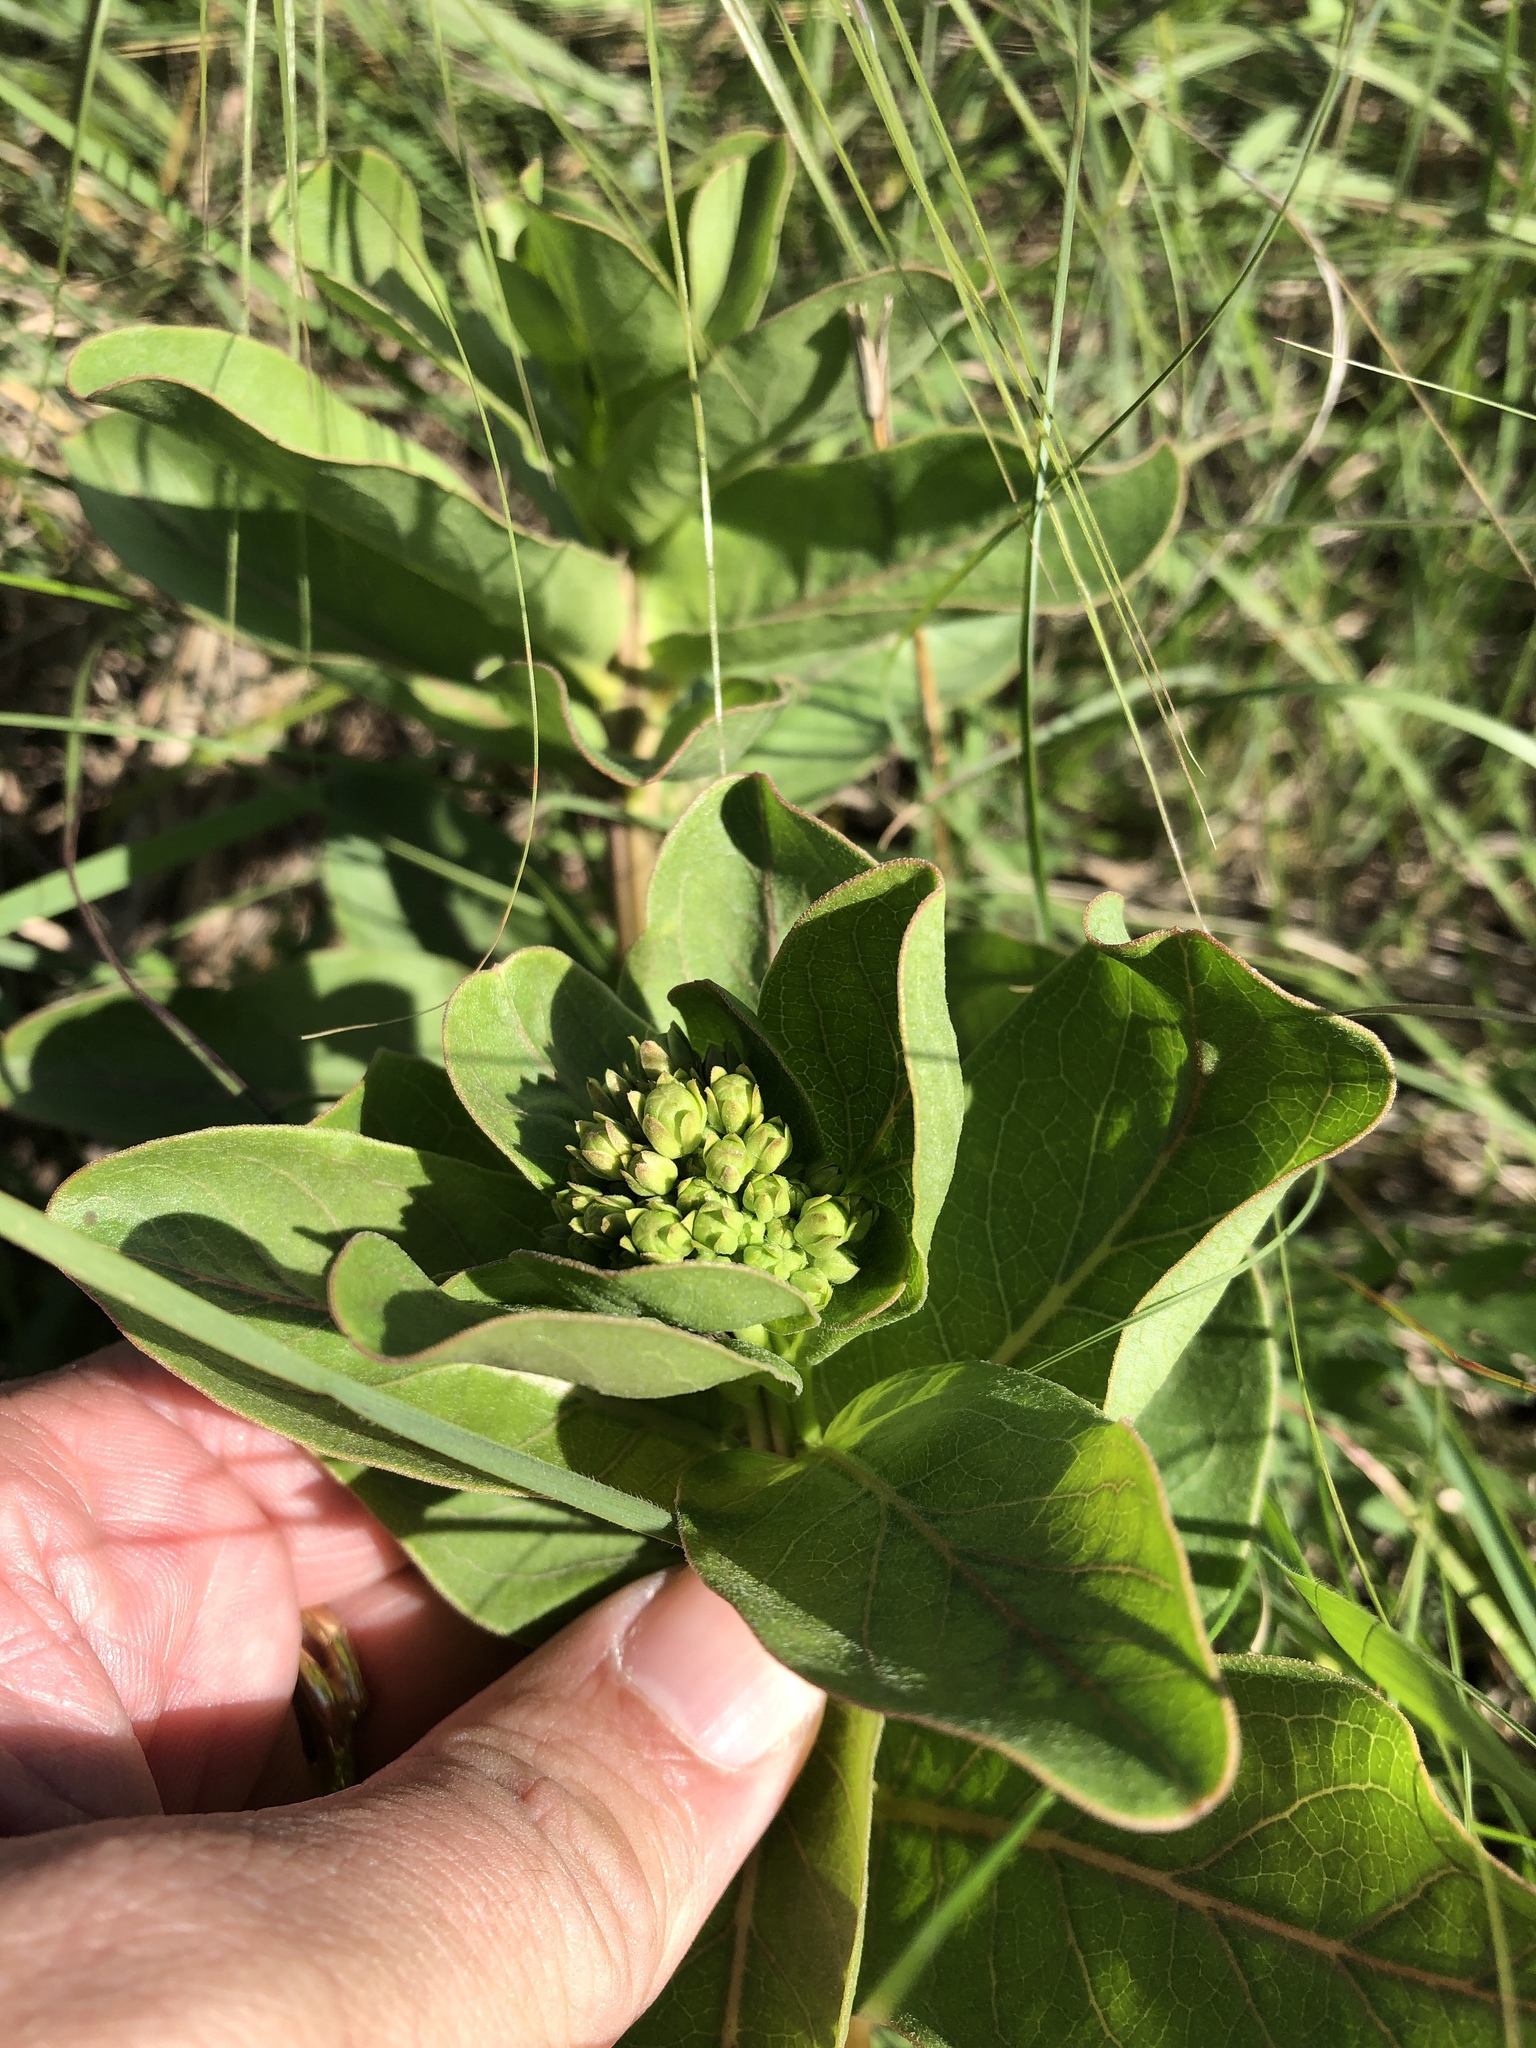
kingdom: Plantae
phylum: Tracheophyta
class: Magnoliopsida
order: Gentianales
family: Apocynaceae
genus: Asclepias
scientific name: Asclepias viridis
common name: Antelope-horns
